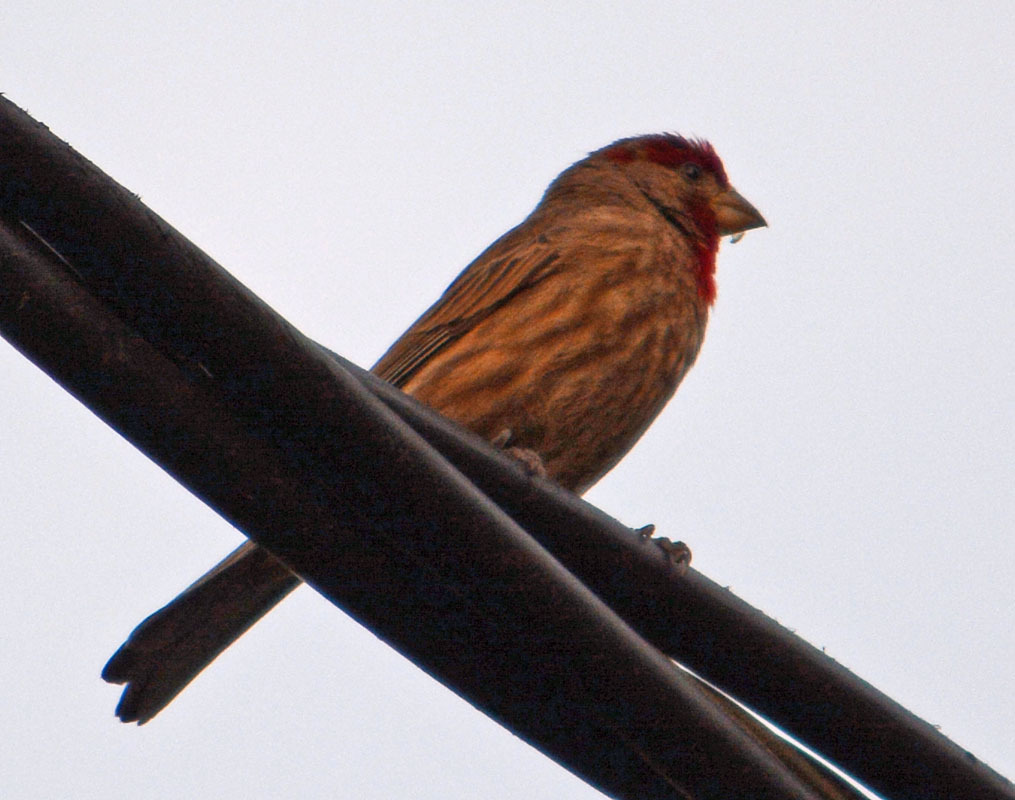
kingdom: Animalia
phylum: Chordata
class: Aves
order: Passeriformes
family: Fringillidae
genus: Haemorhous
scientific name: Haemorhous mexicanus
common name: House finch
